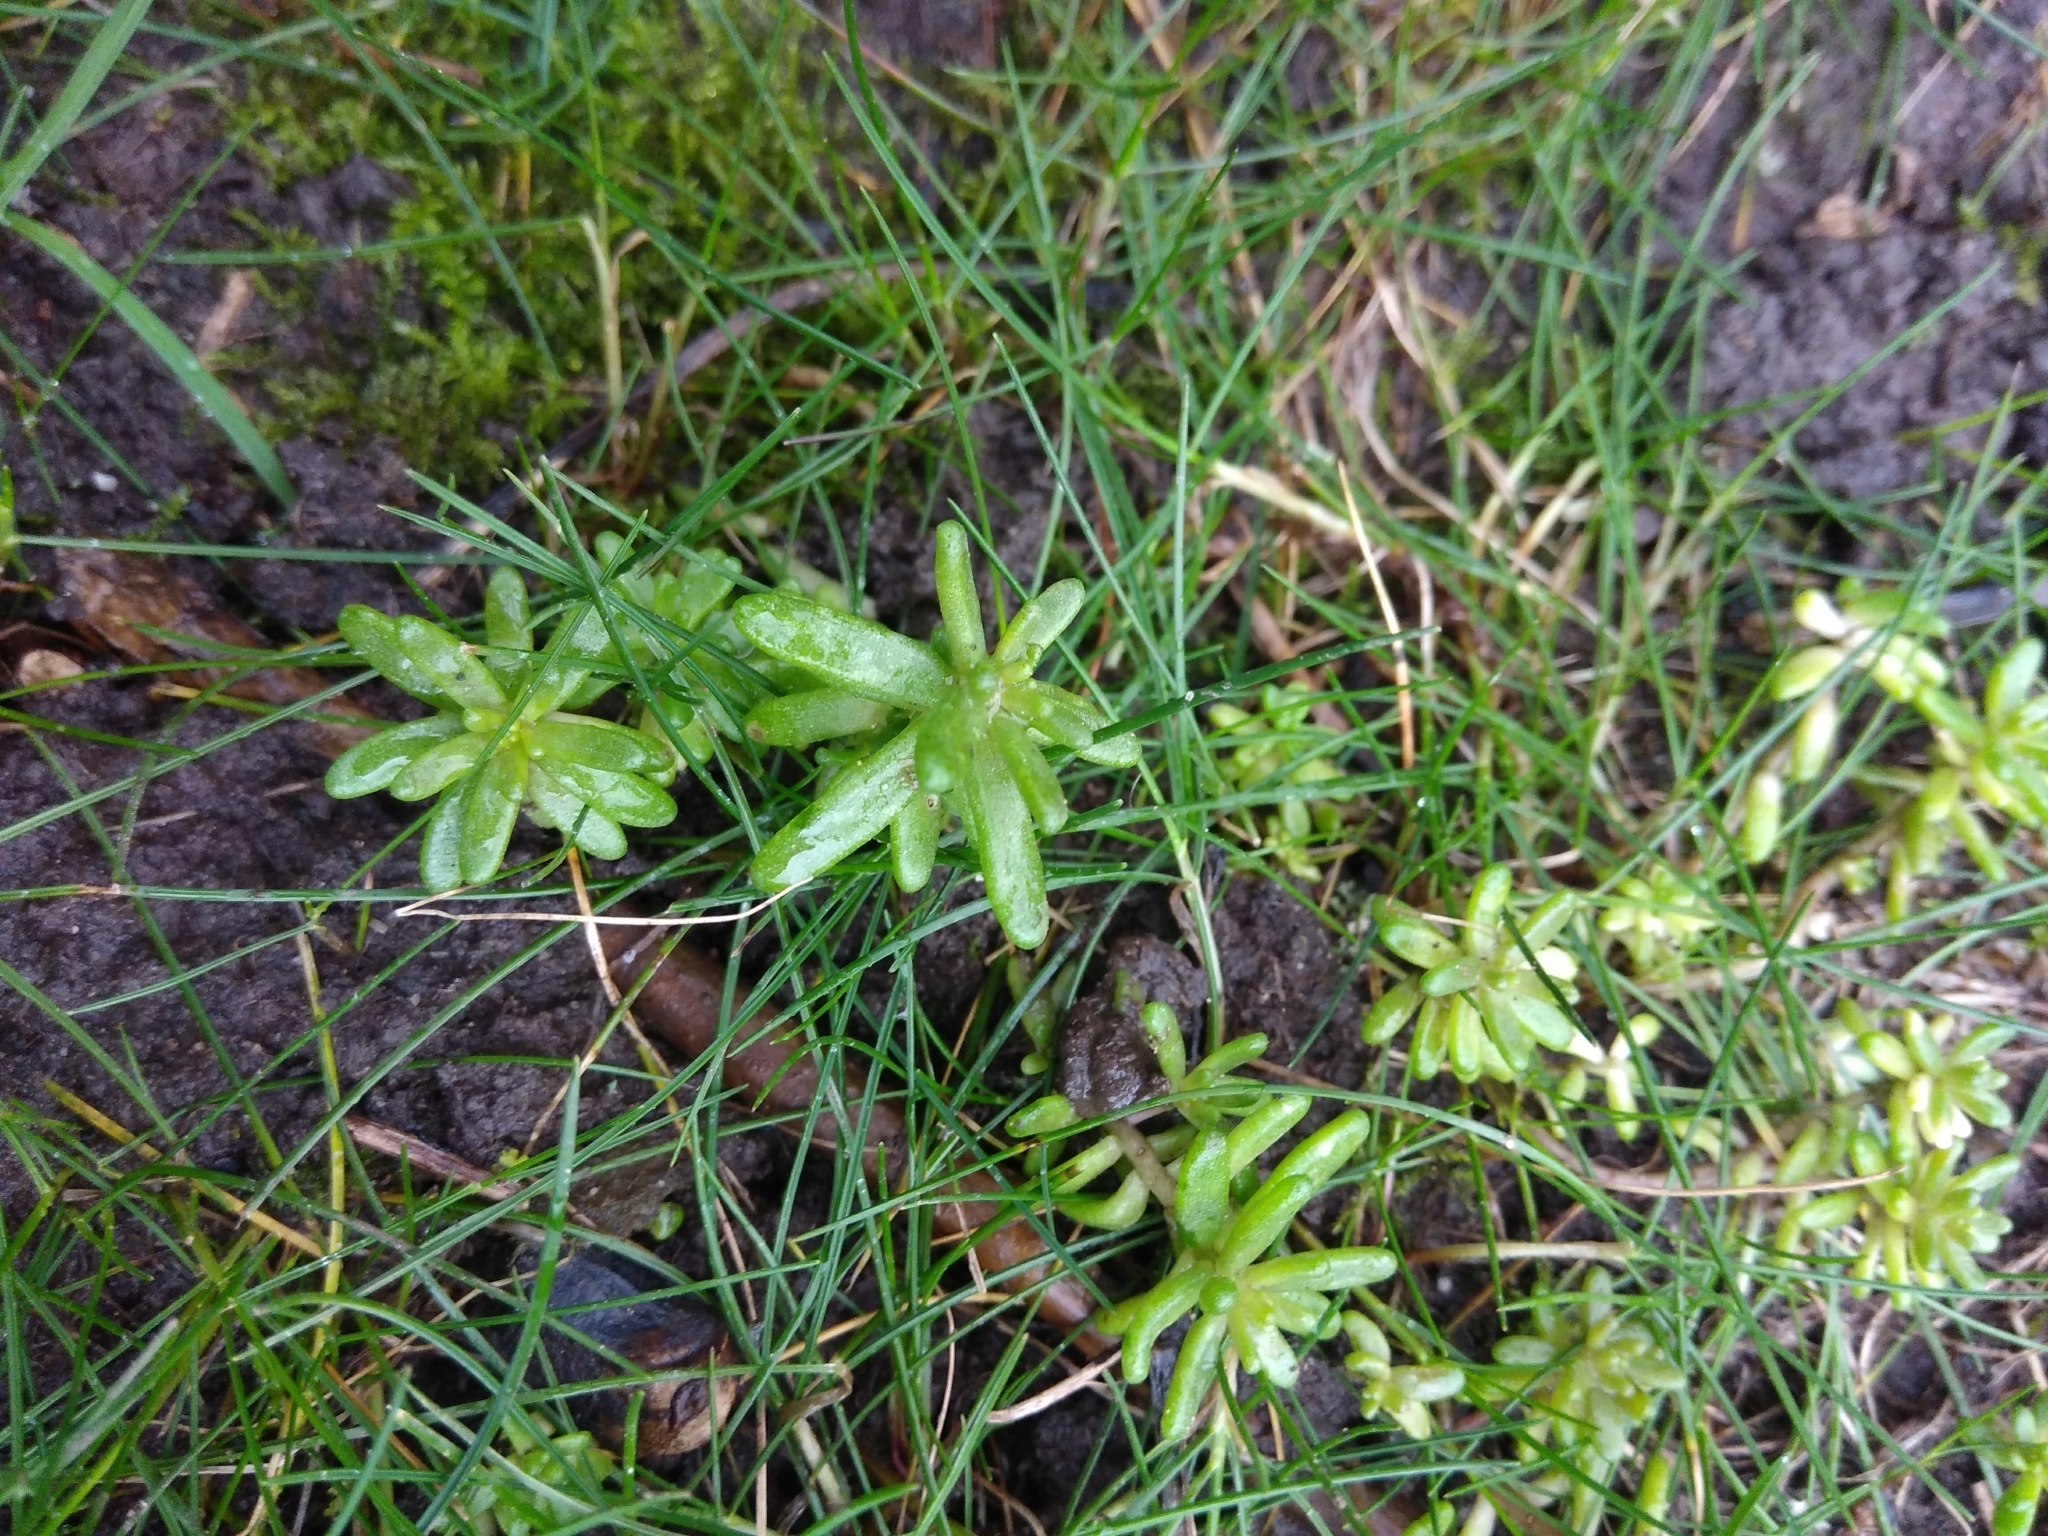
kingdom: Plantae
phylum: Tracheophyta
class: Magnoliopsida
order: Saxifragales
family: Crassulaceae
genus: Sedum
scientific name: Sedum album
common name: White stonecrop
